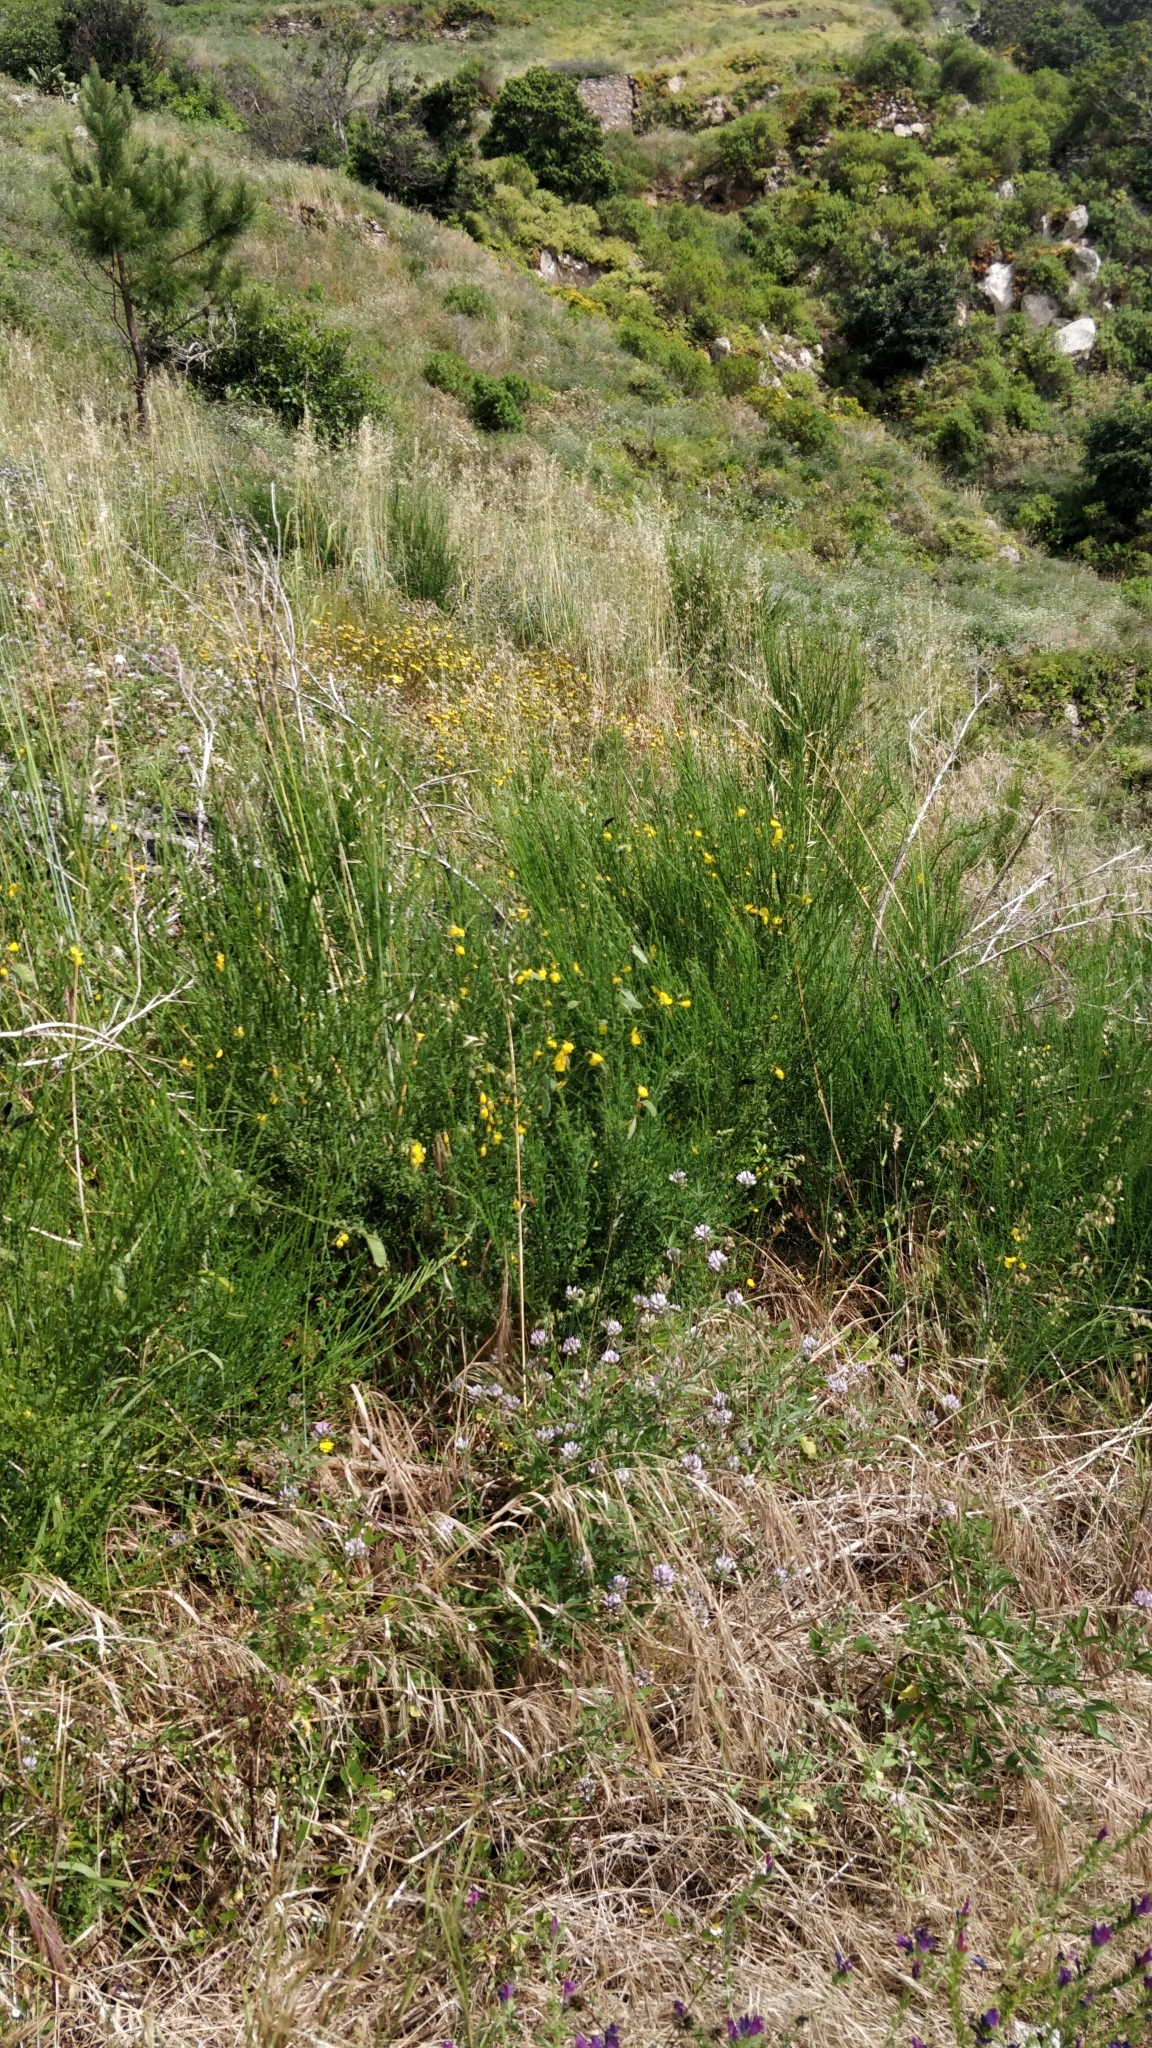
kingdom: Plantae
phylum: Tracheophyta
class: Magnoliopsida
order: Fabales
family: Fabaceae
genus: Cytisus
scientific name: Cytisus scoparius
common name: Scotch broom
